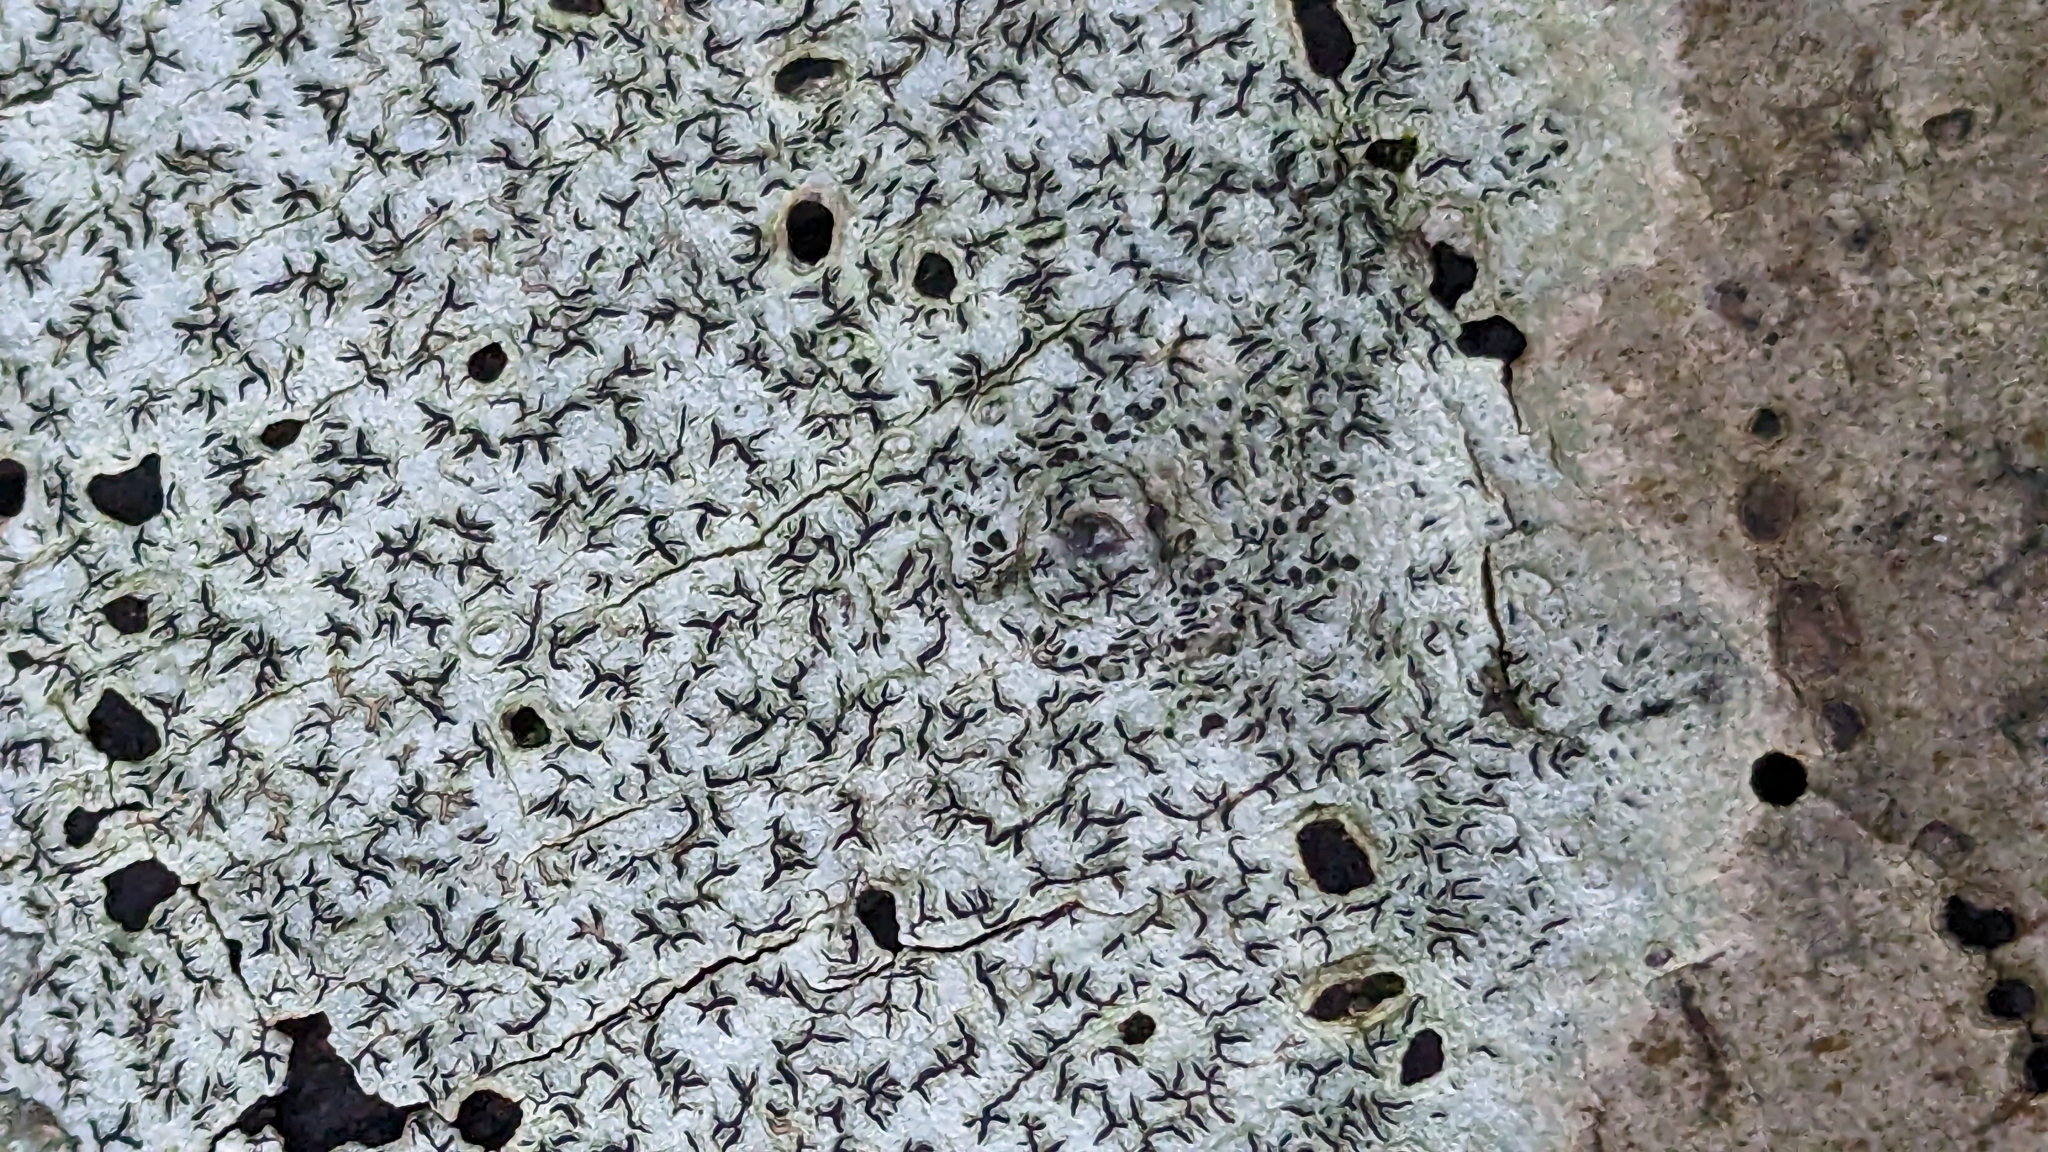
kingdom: Fungi
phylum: Ascomycota
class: Lecanoromycetes
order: Ostropales
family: Graphidaceae
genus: Graphis
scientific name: Graphis scripta
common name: Script lichen
